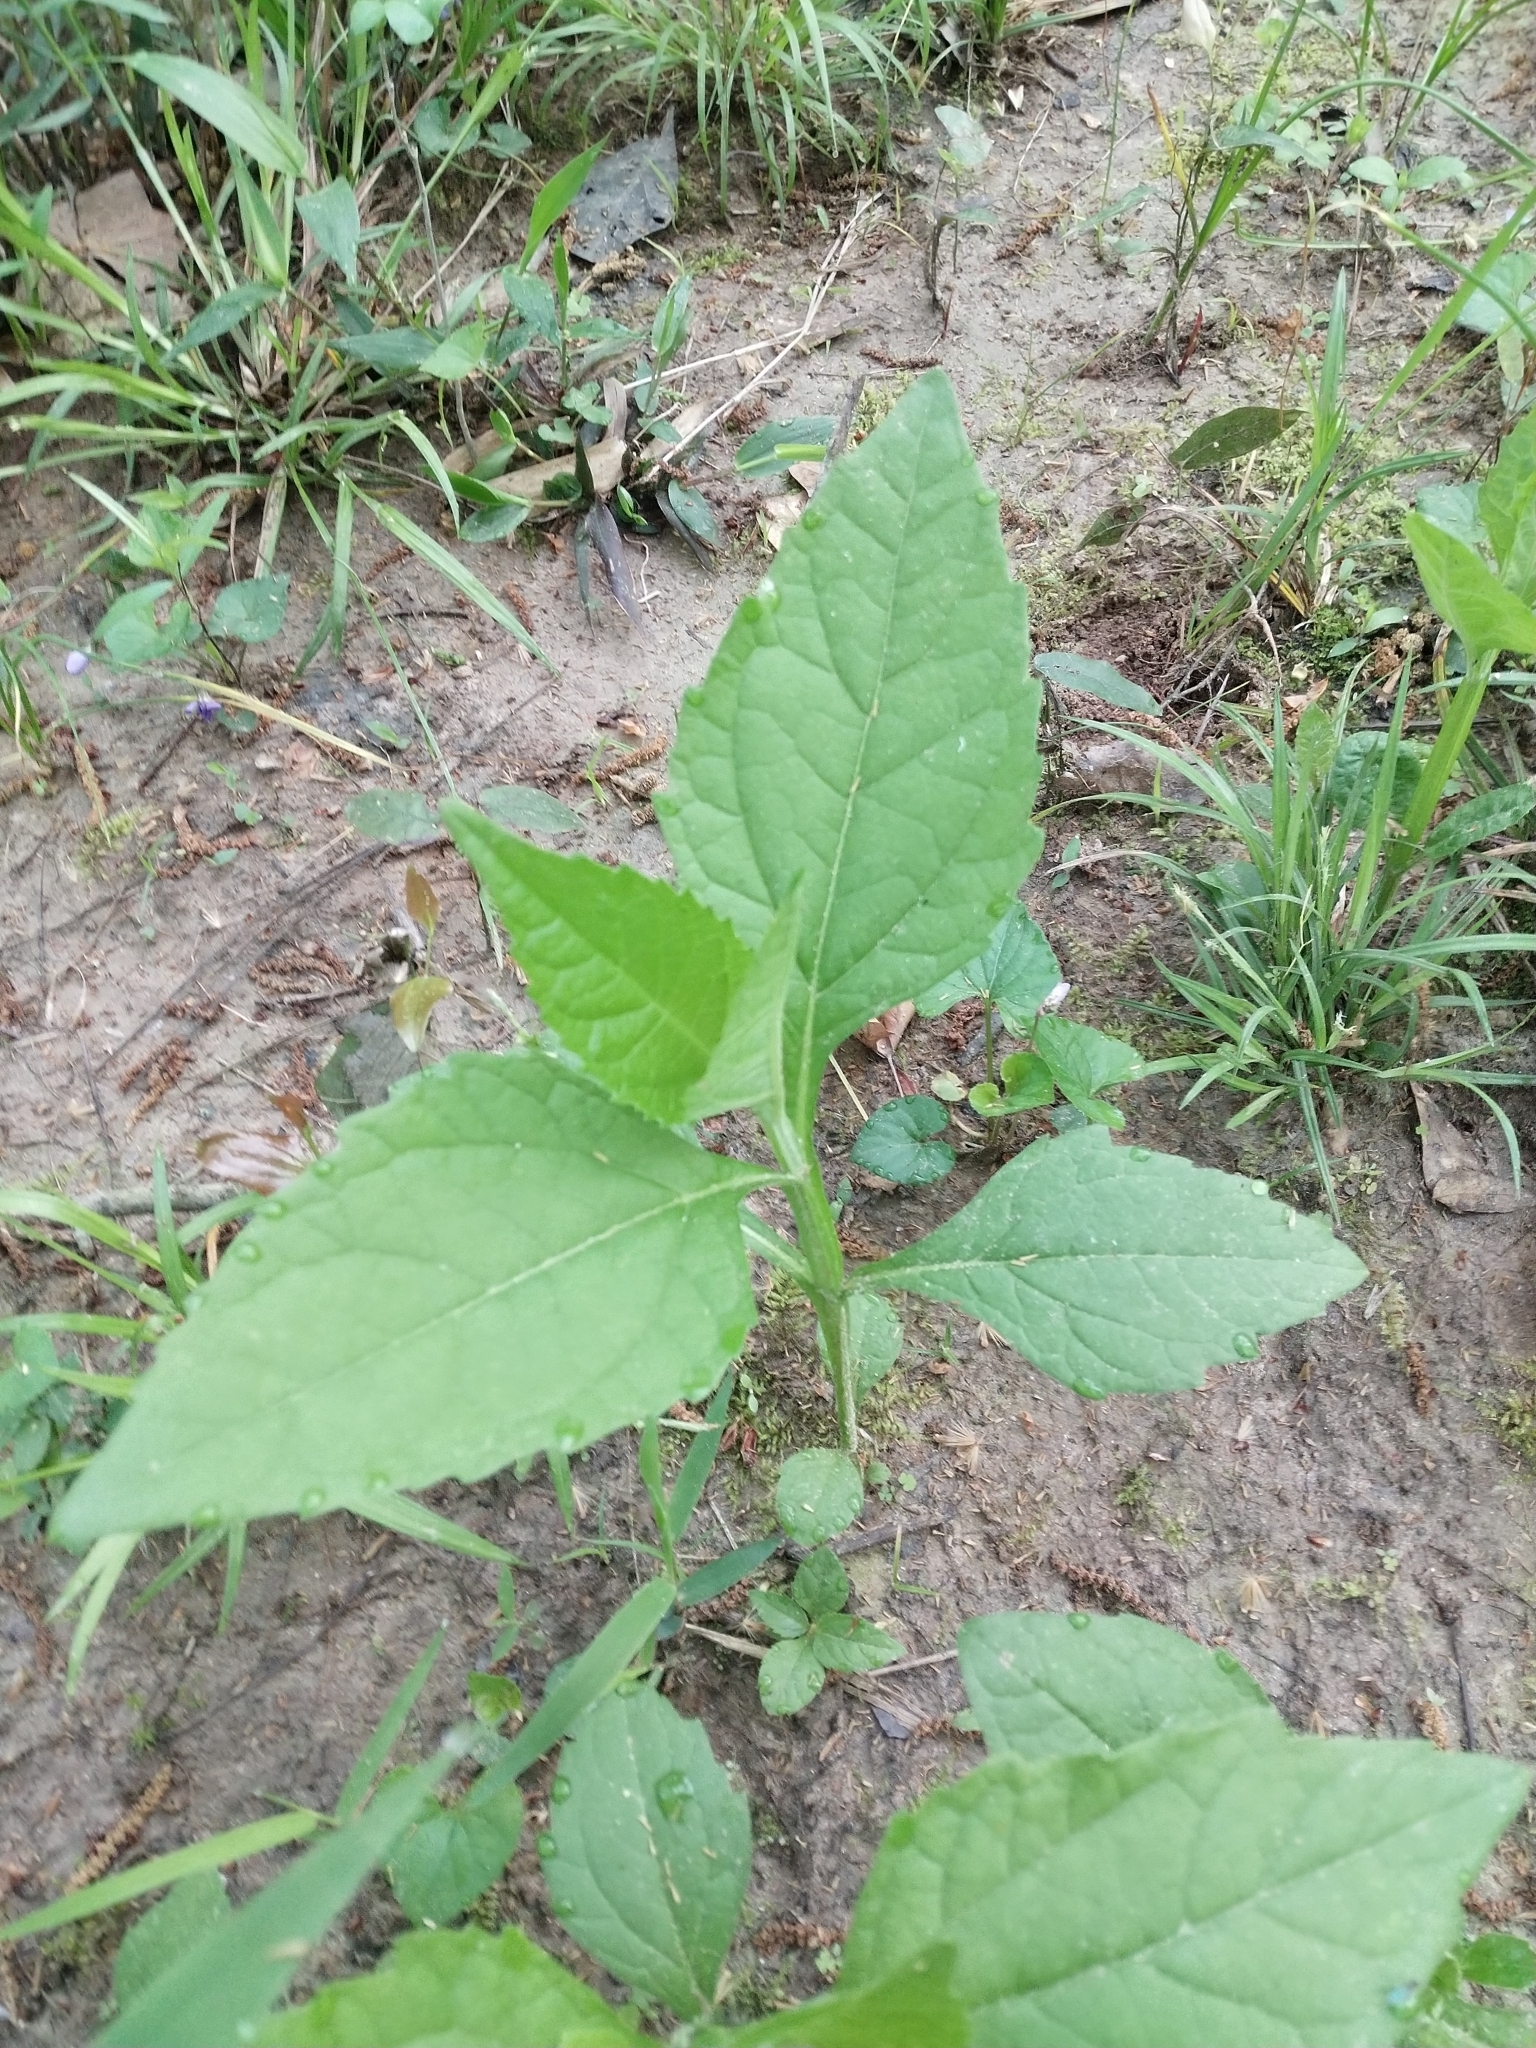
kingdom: Plantae
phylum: Tracheophyta
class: Magnoliopsida
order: Asterales
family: Asteraceae
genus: Verbesina
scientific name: Verbesina occidentalis
